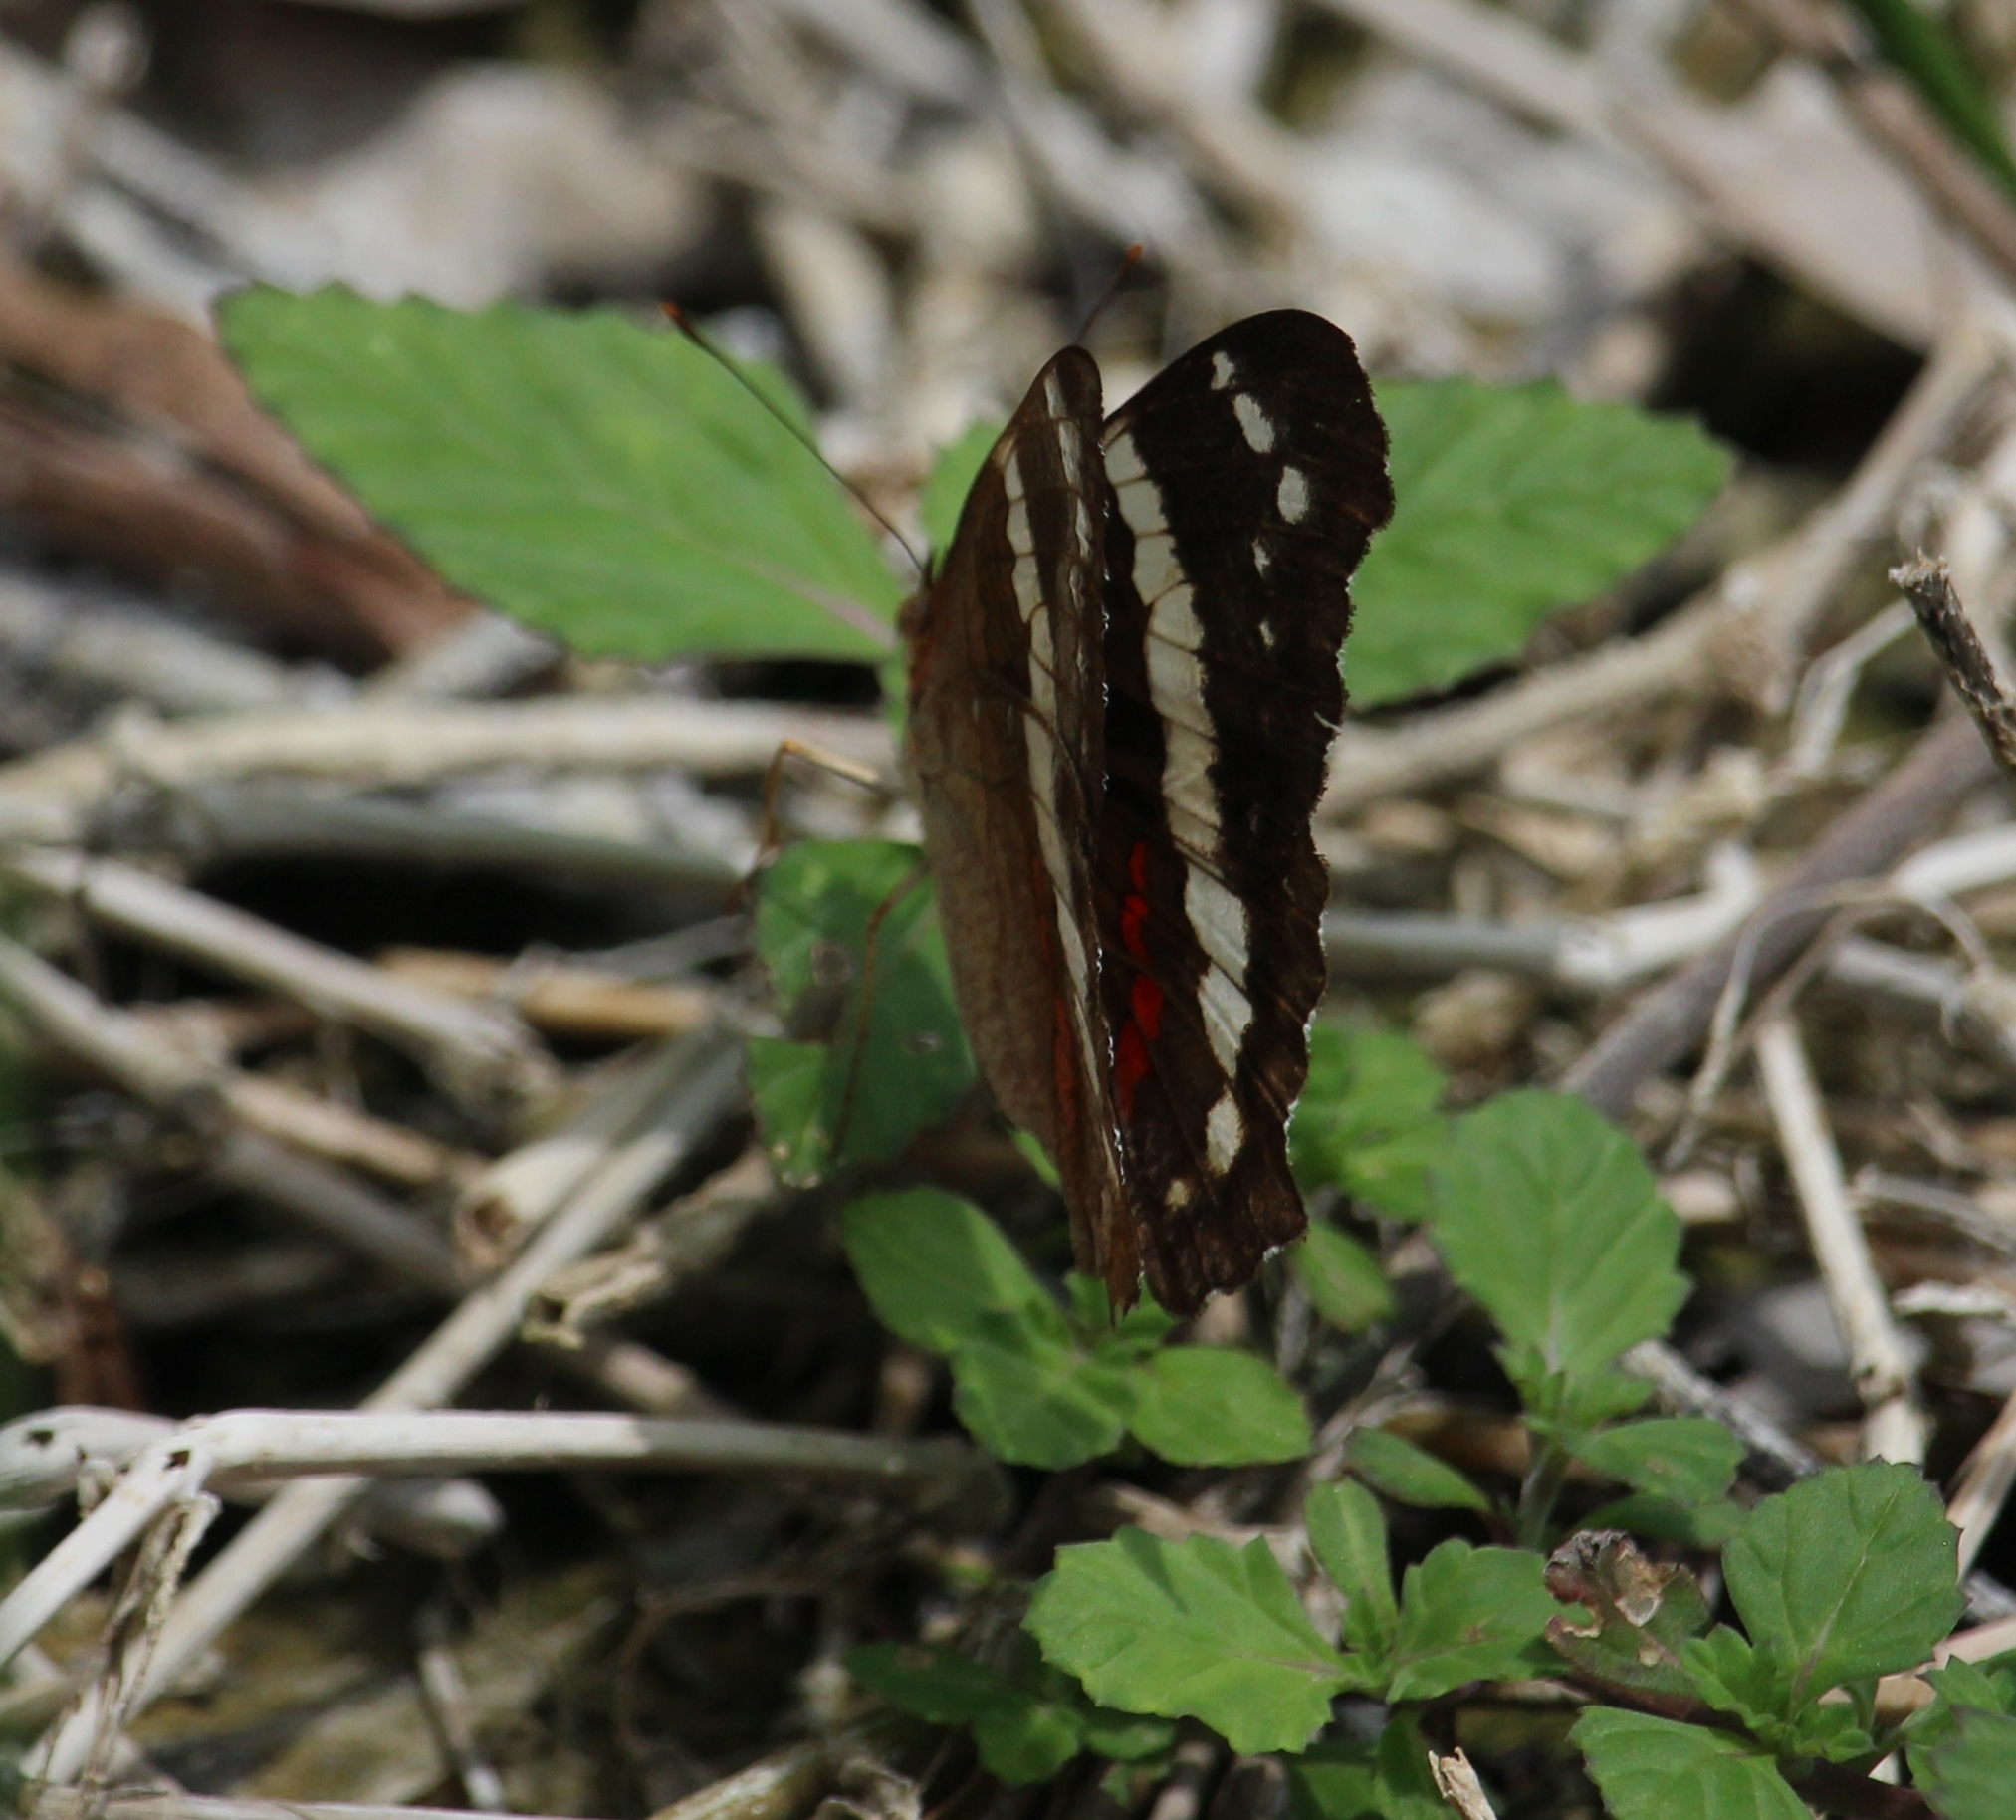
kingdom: Animalia
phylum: Arthropoda
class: Insecta
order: Lepidoptera
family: Nymphalidae
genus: Anartia
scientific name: Anartia fatima
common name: Banded peacock
